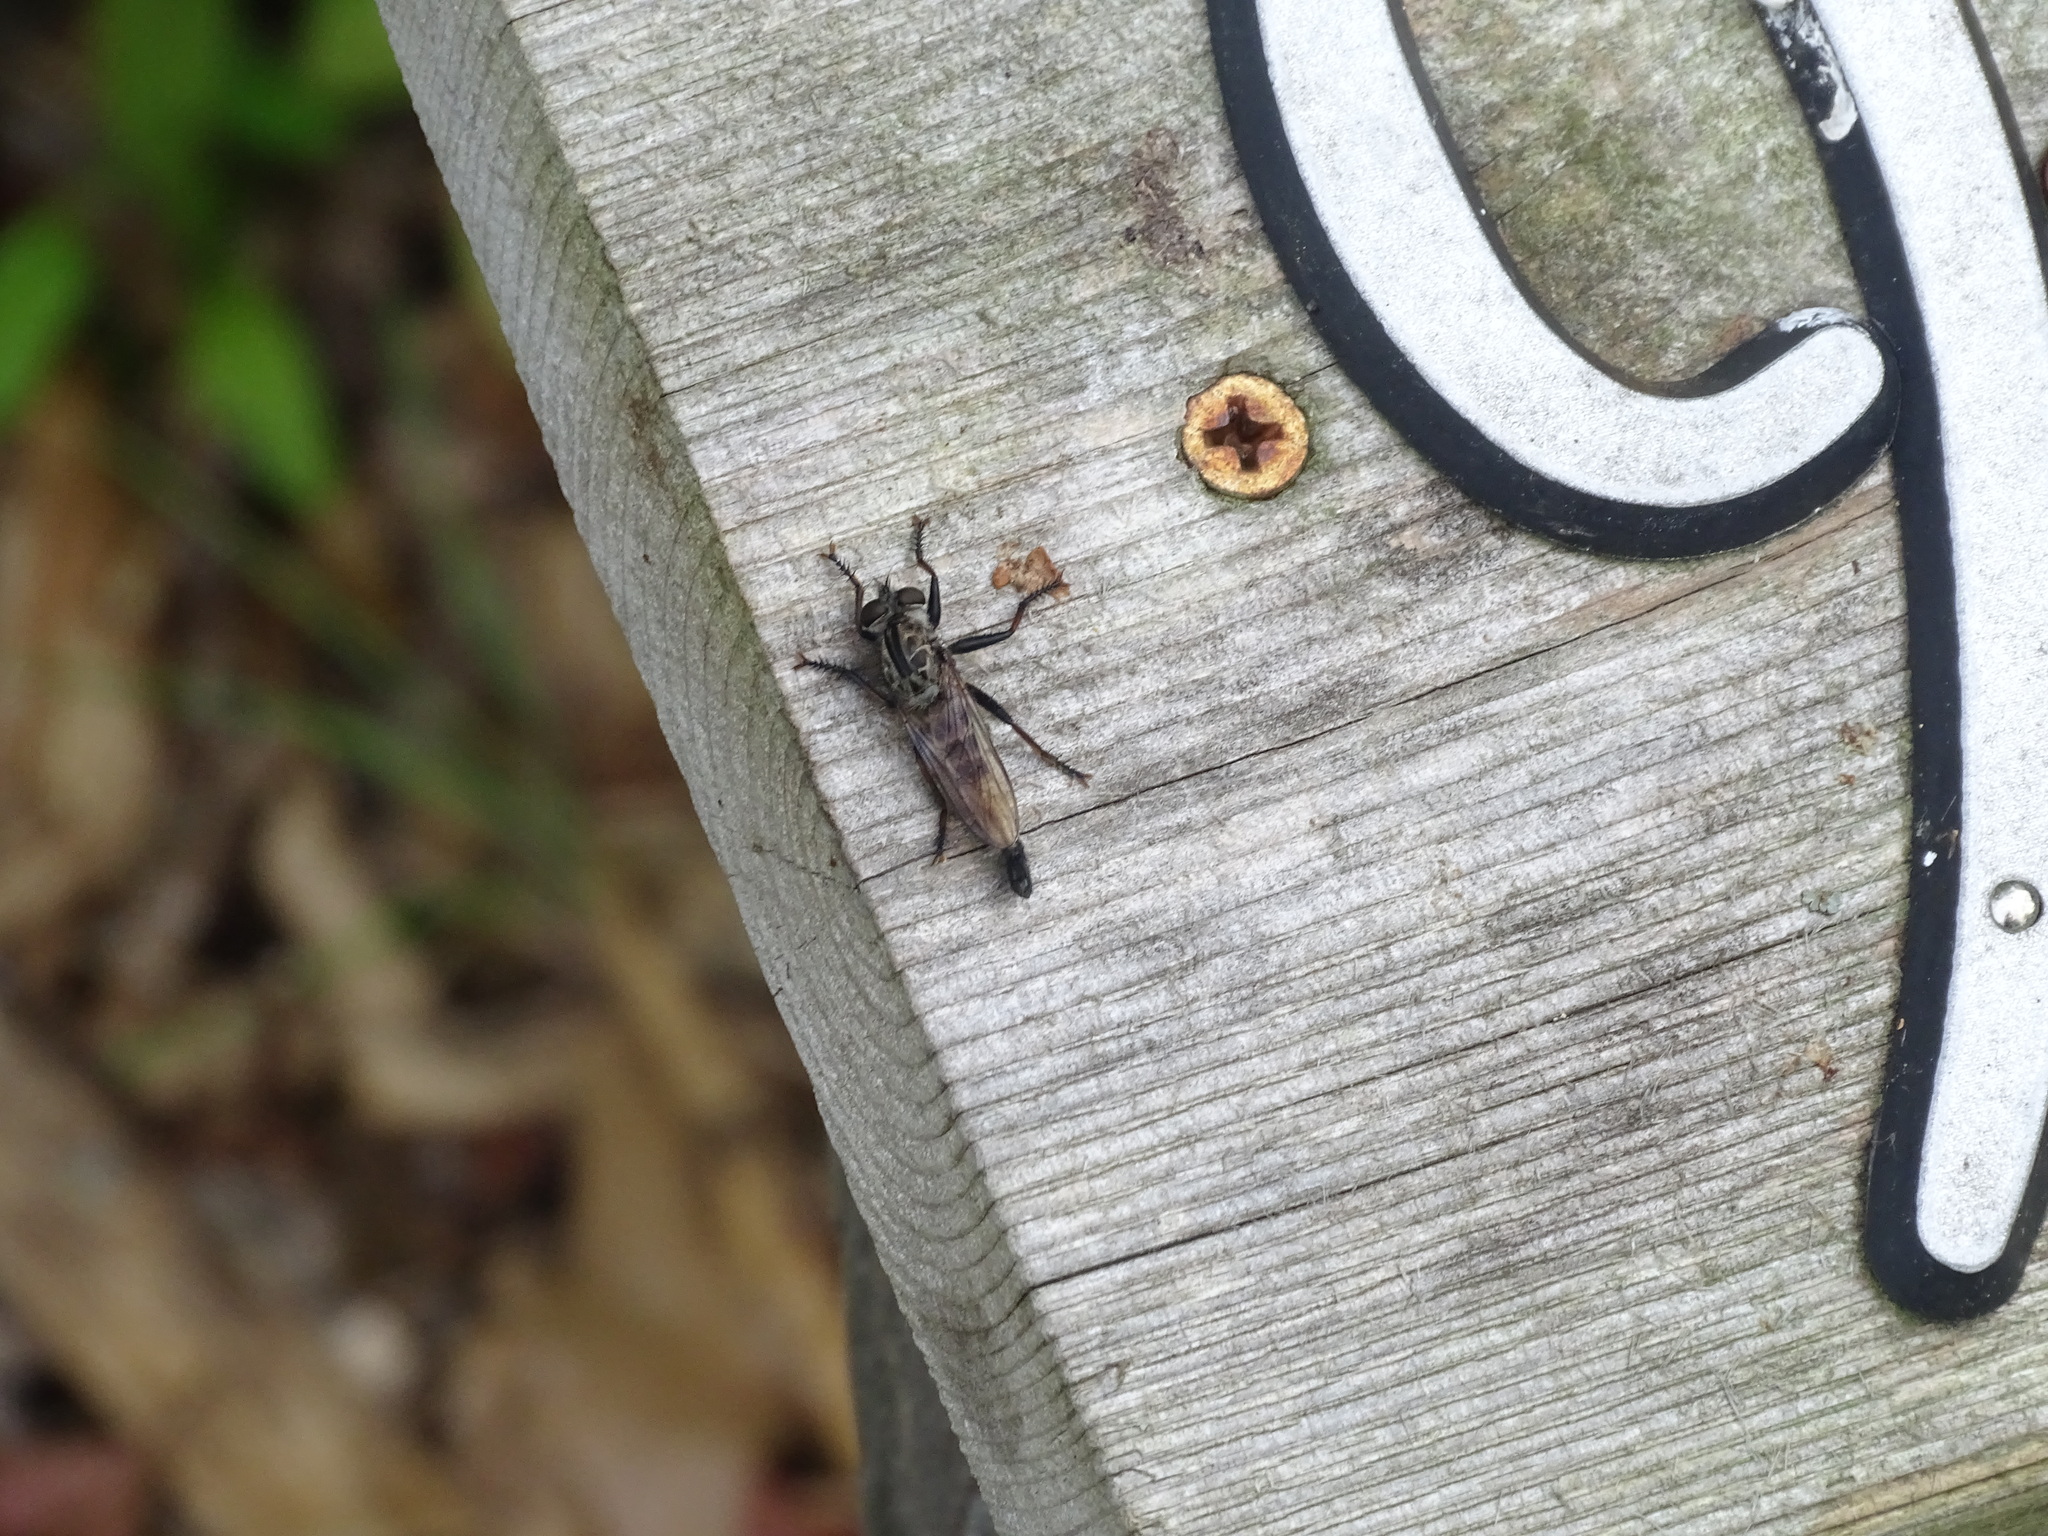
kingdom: Animalia
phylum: Arthropoda
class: Insecta
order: Diptera
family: Asilidae
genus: Efferia
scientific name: Efferia aestuans
